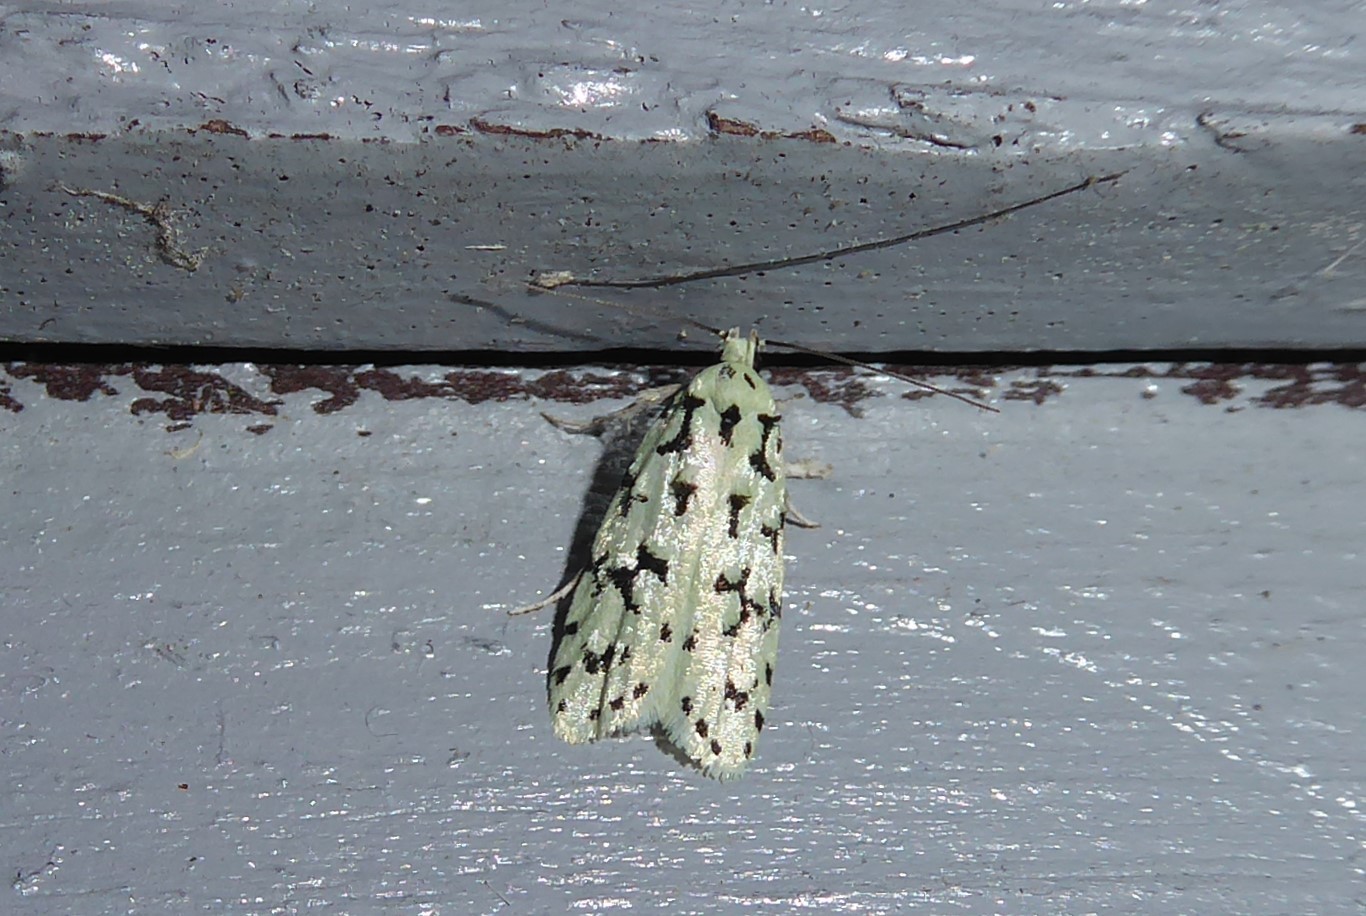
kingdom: Animalia
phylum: Arthropoda
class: Insecta
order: Lepidoptera
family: Oecophoridae
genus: Izatha
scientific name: Izatha huttoni
